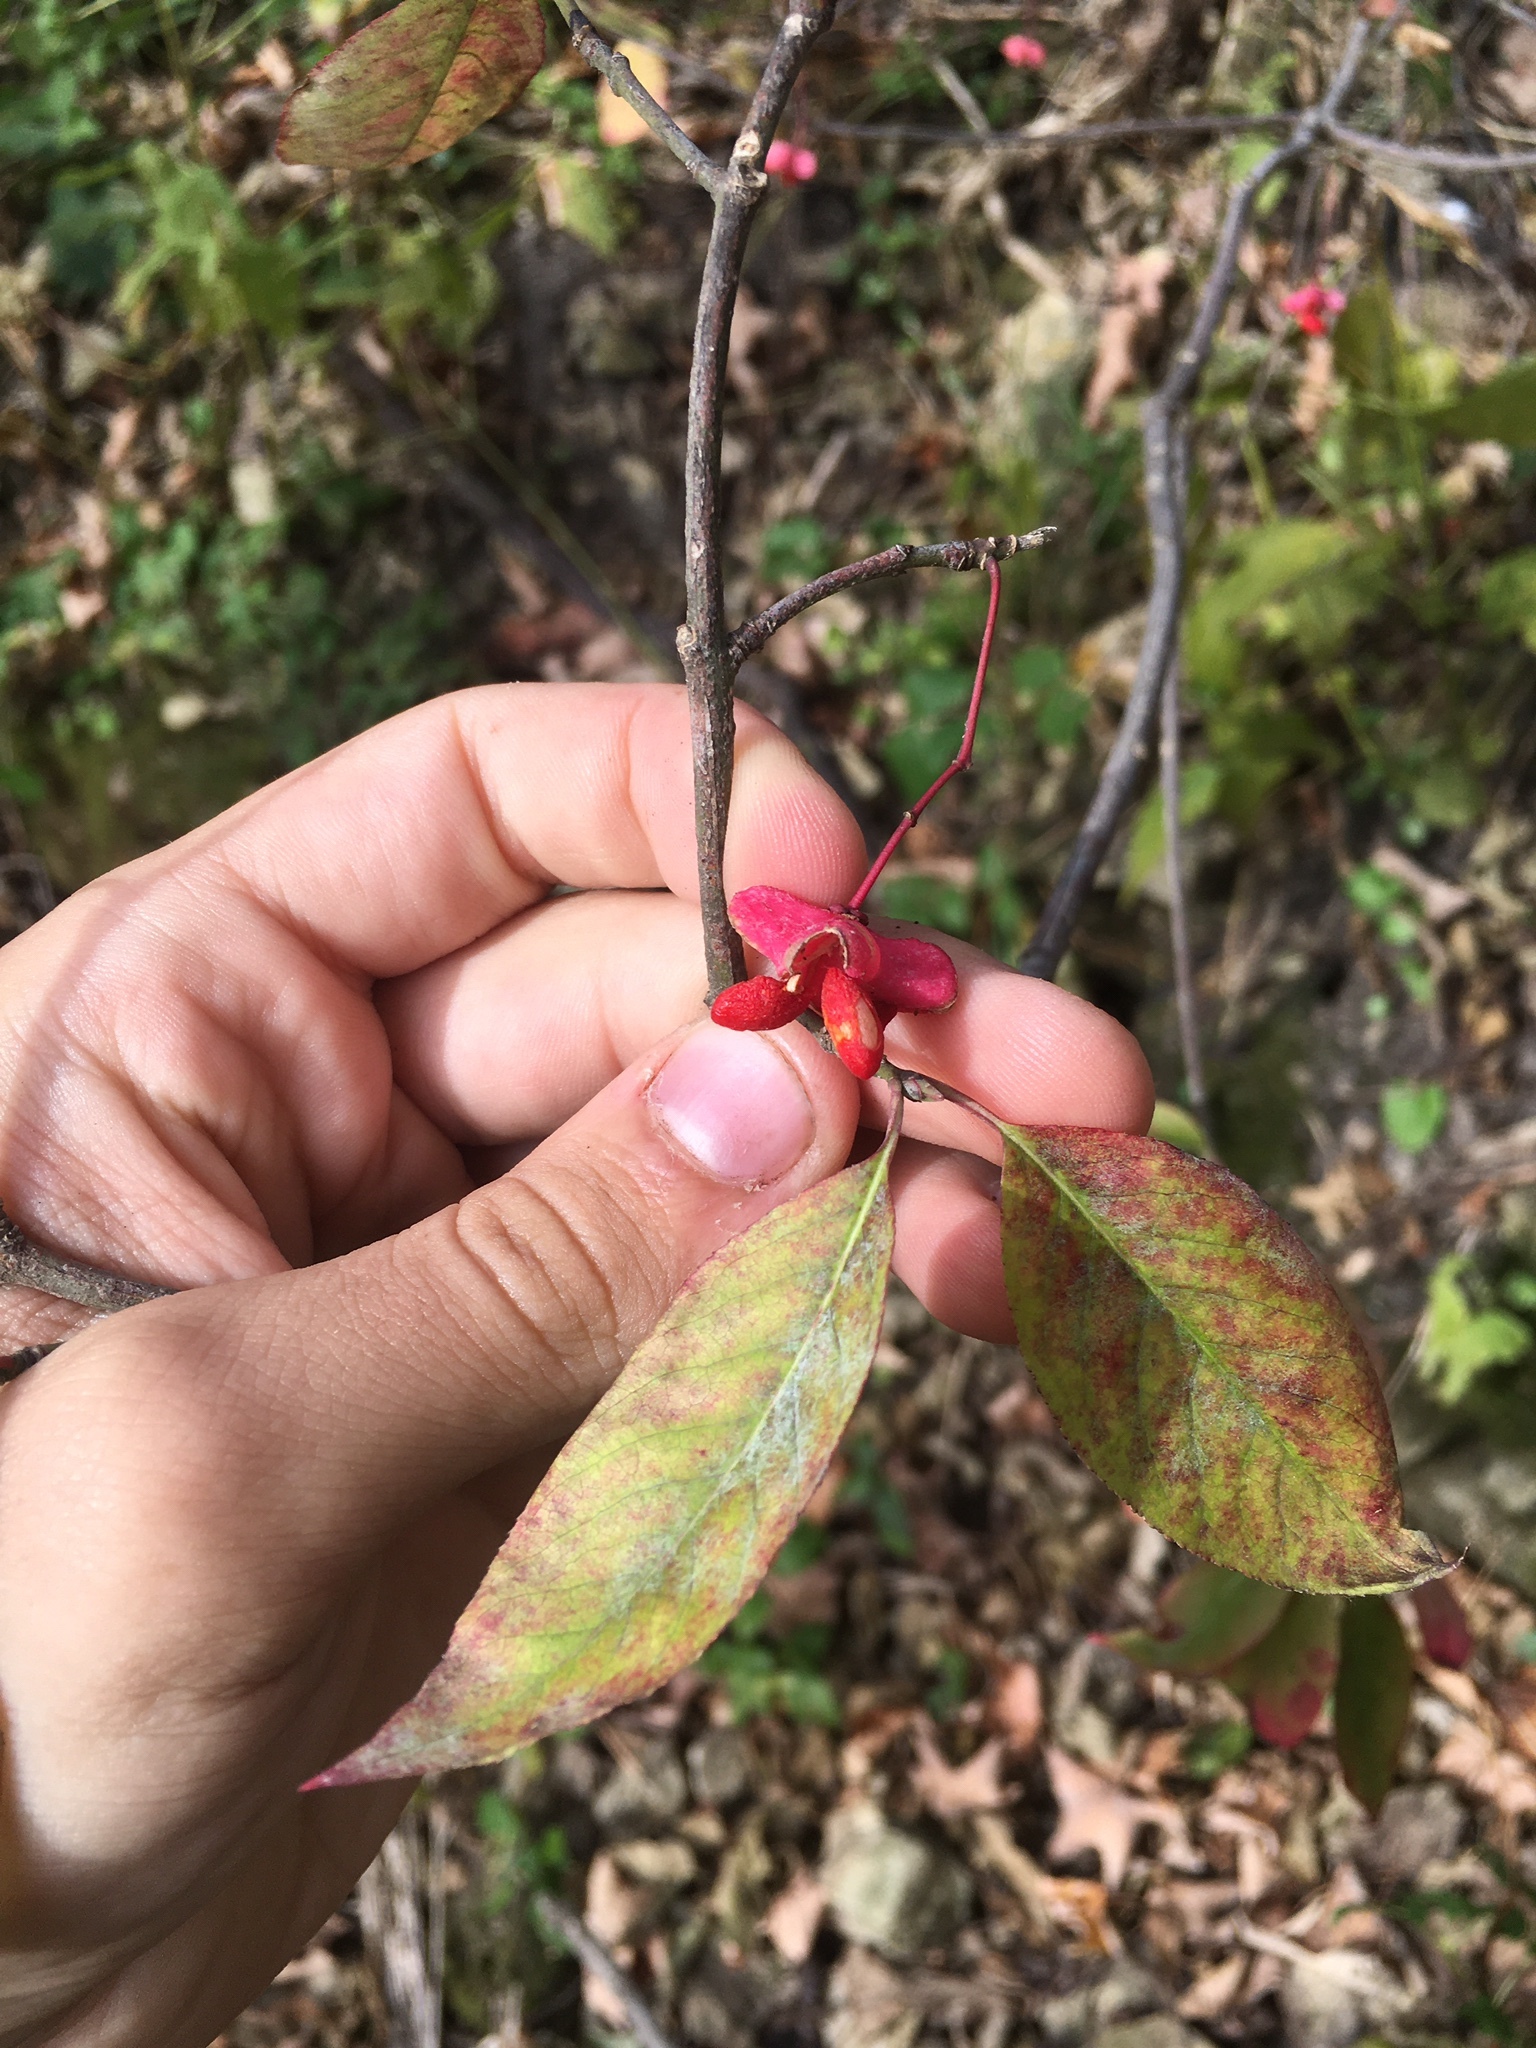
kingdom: Plantae
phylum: Tracheophyta
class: Magnoliopsida
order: Celastrales
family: Celastraceae
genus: Euonymus
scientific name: Euonymus atropurpureus
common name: Eastern wahoo
